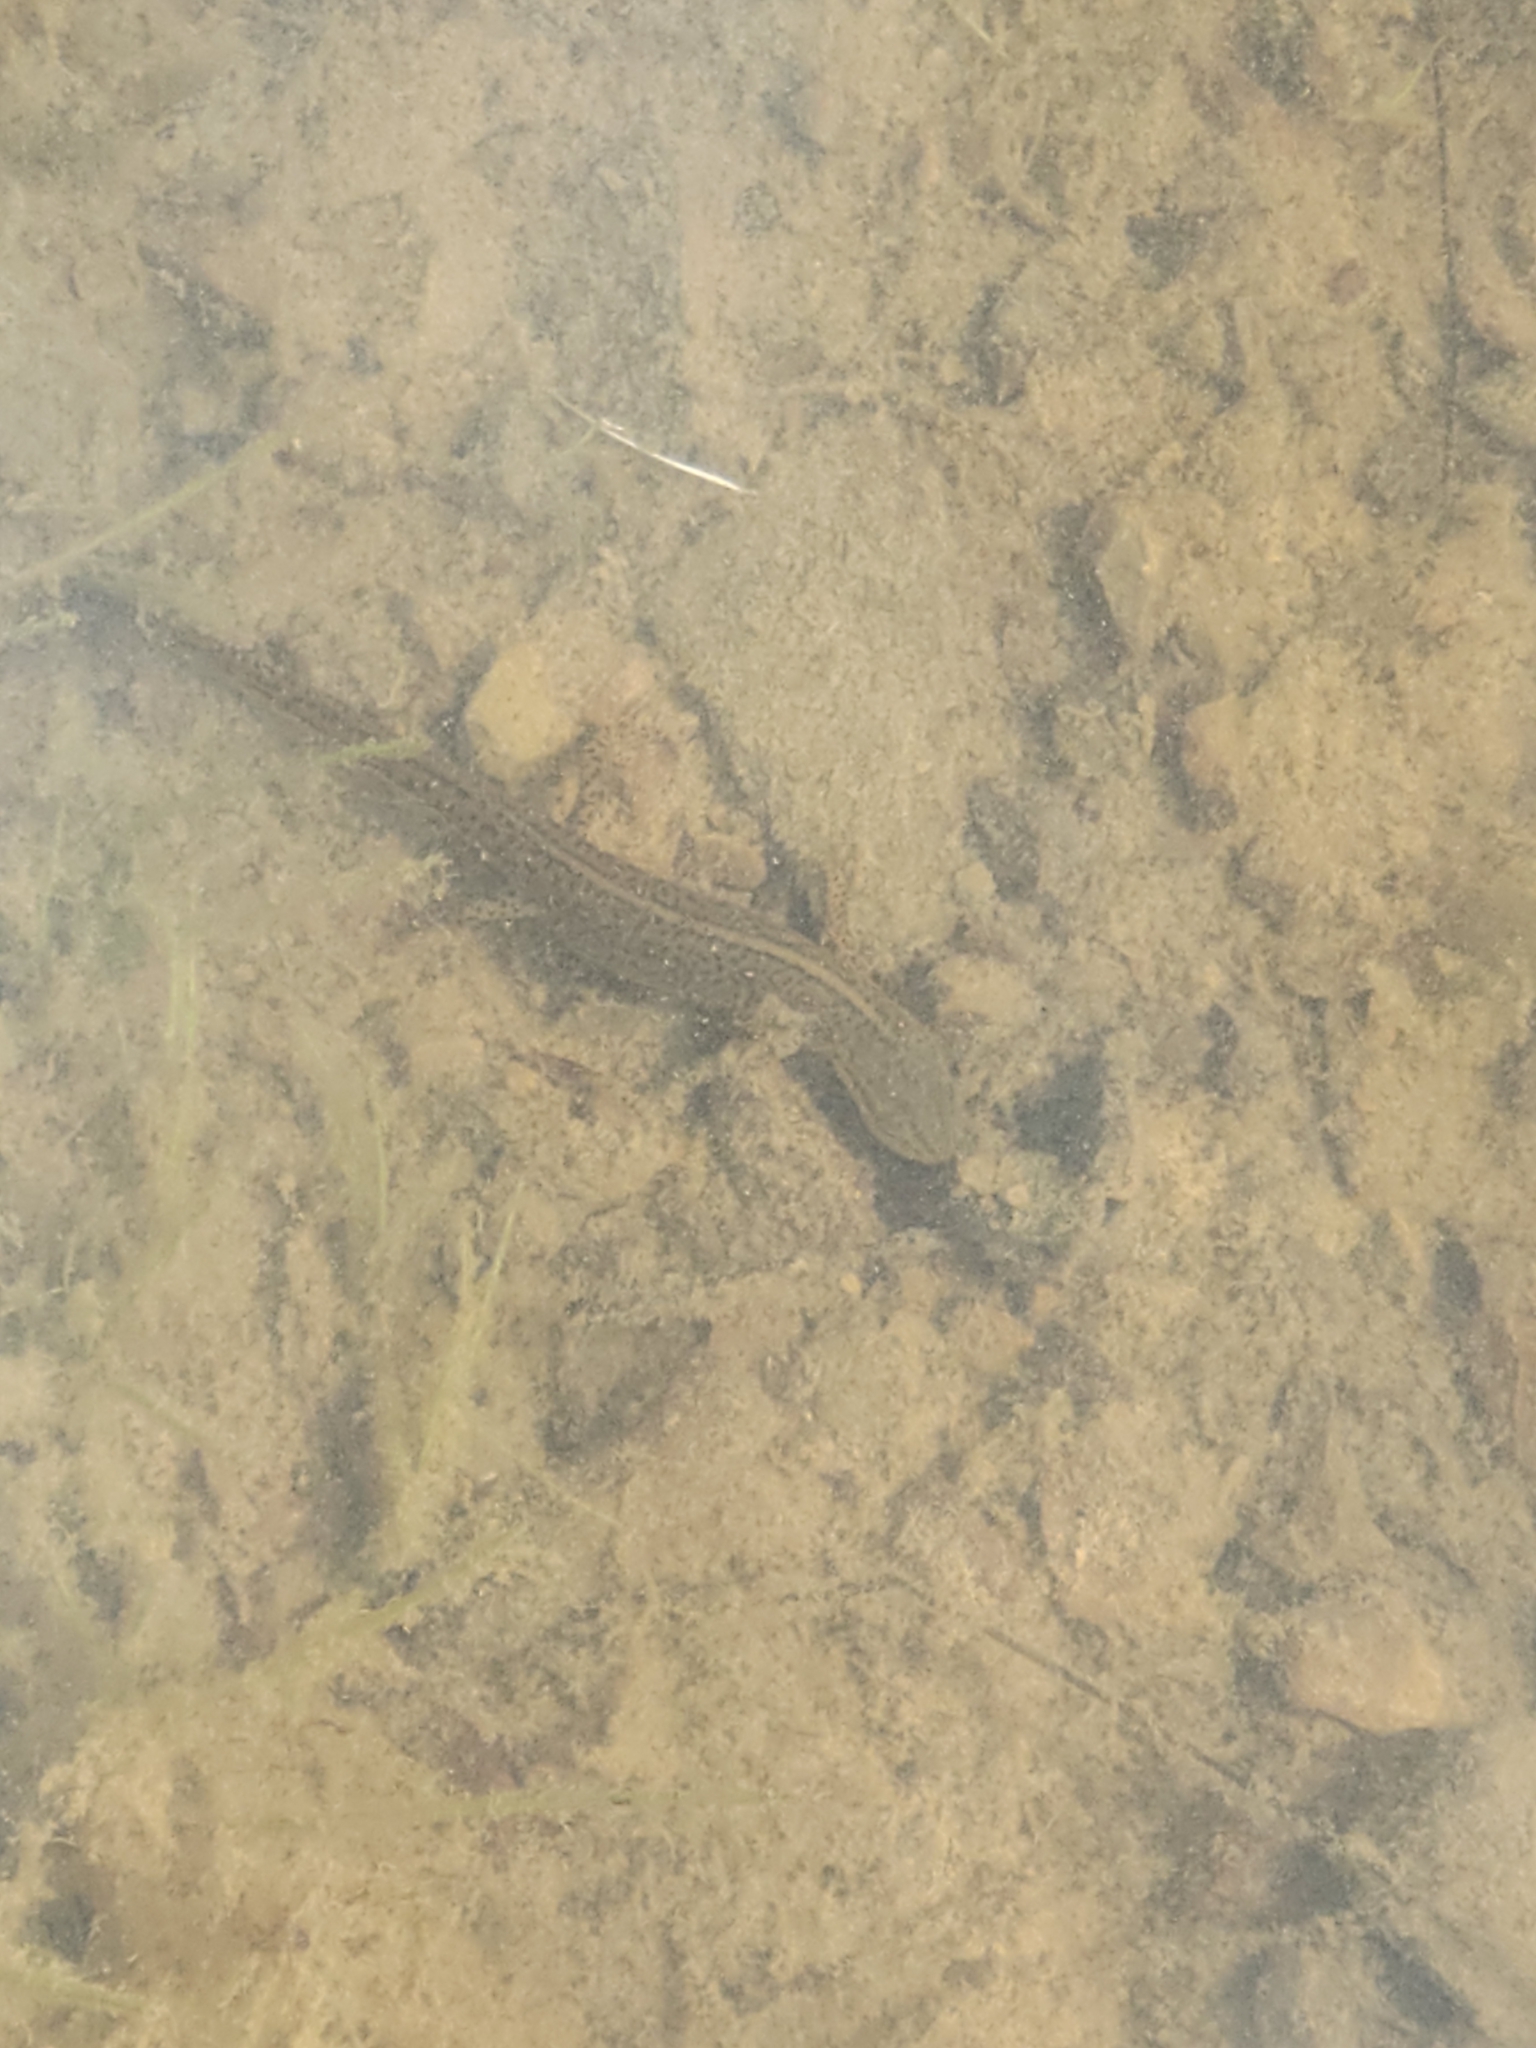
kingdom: Animalia
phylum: Chordata
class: Amphibia
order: Caudata
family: Salamandridae
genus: Notophthalmus
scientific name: Notophthalmus viridescens
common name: Eastern newt
